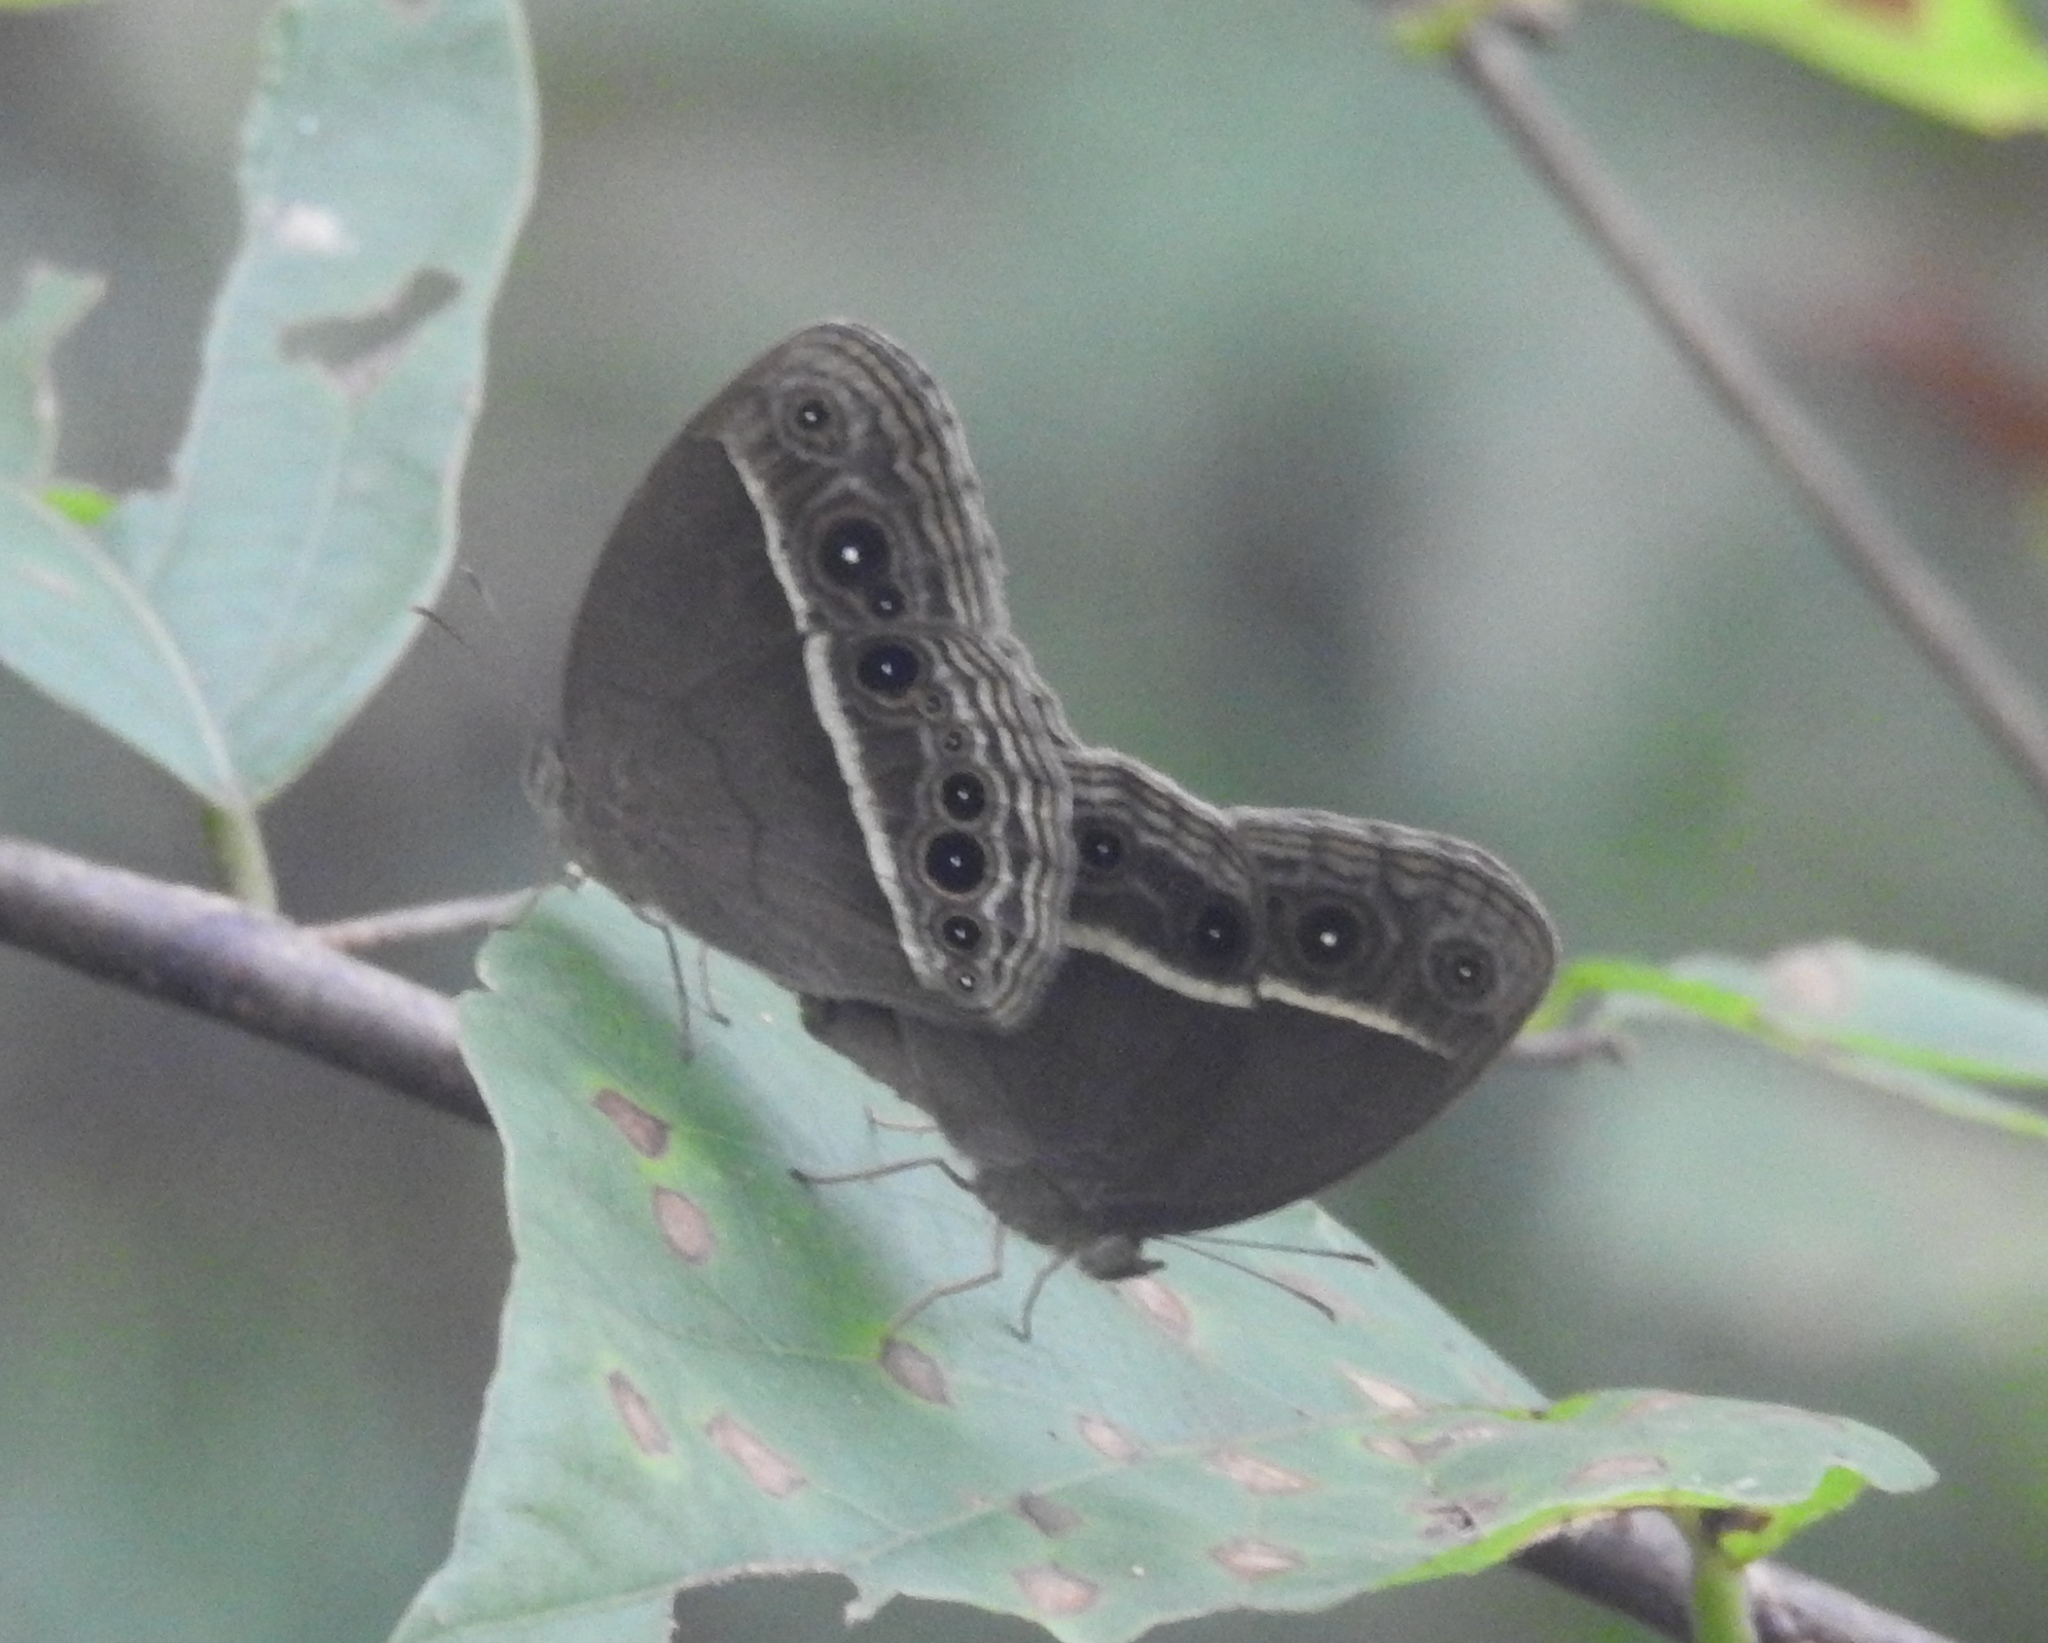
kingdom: Animalia
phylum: Arthropoda
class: Insecta
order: Lepidoptera
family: Nymphalidae
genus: Mycalesis
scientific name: Mycalesis mineus
